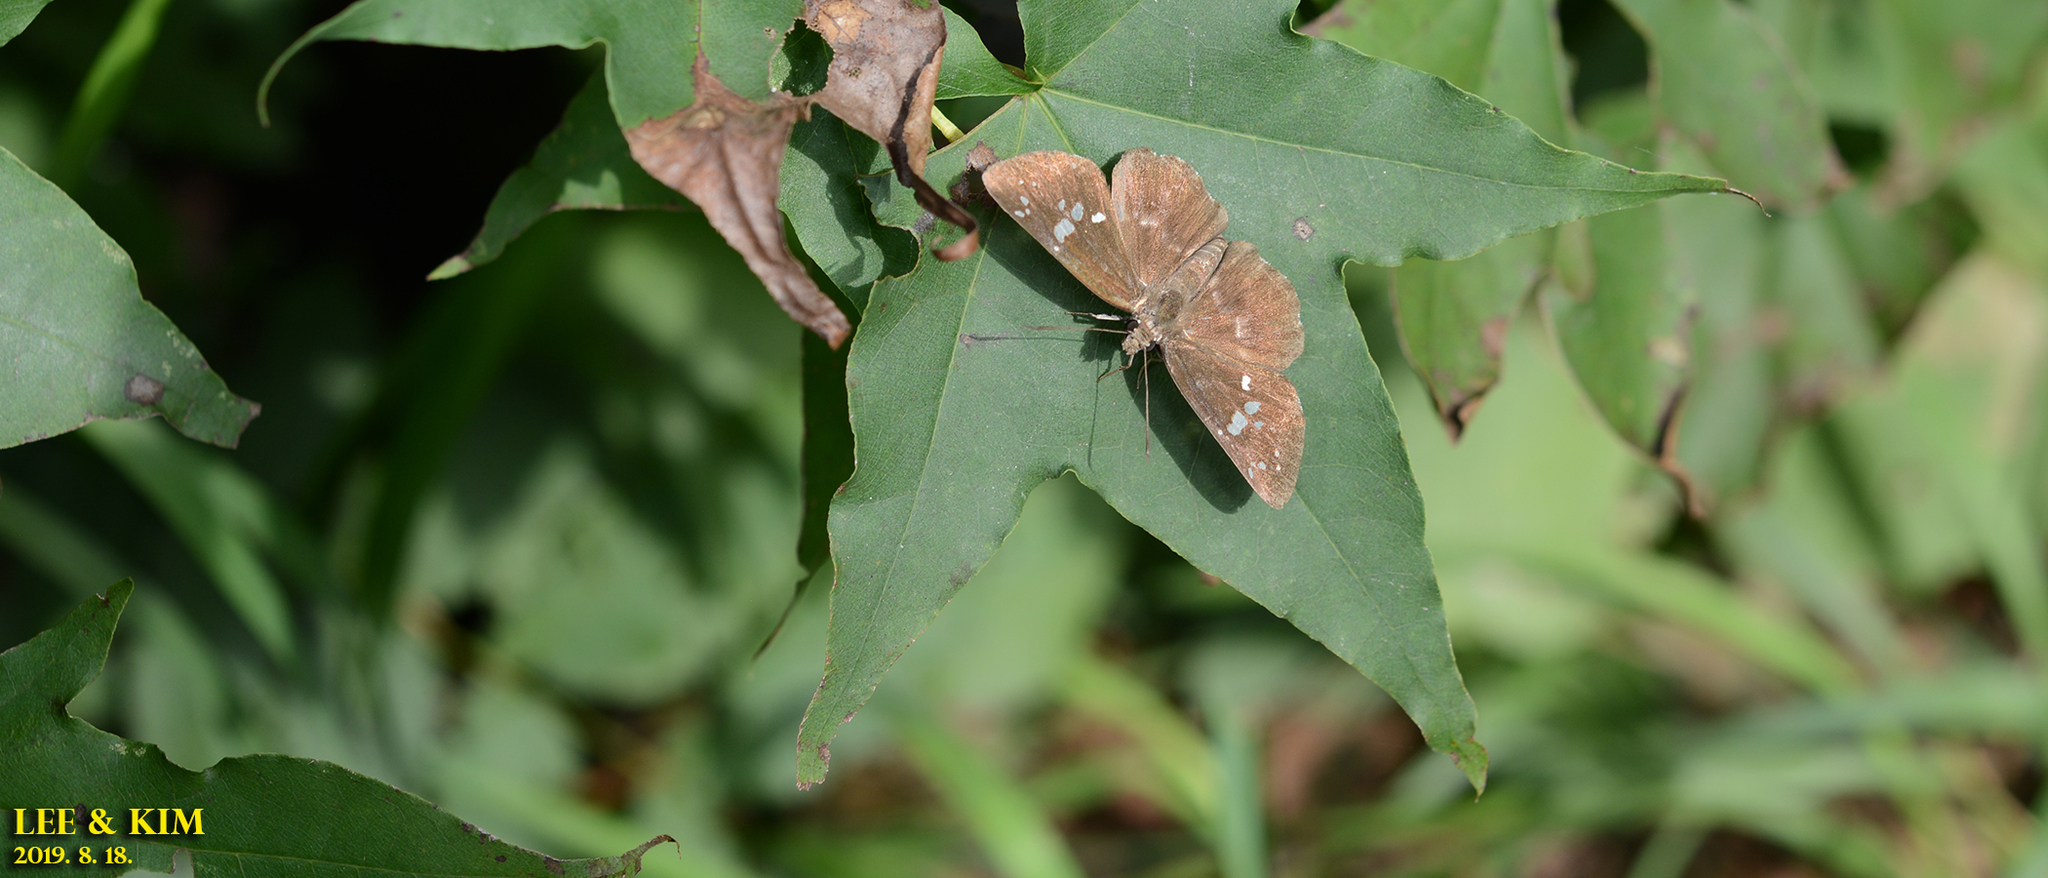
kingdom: Animalia
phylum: Arthropoda
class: Insecta
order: Lepidoptera
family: Hesperiidae
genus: Daimio
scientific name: Daimio tethys
